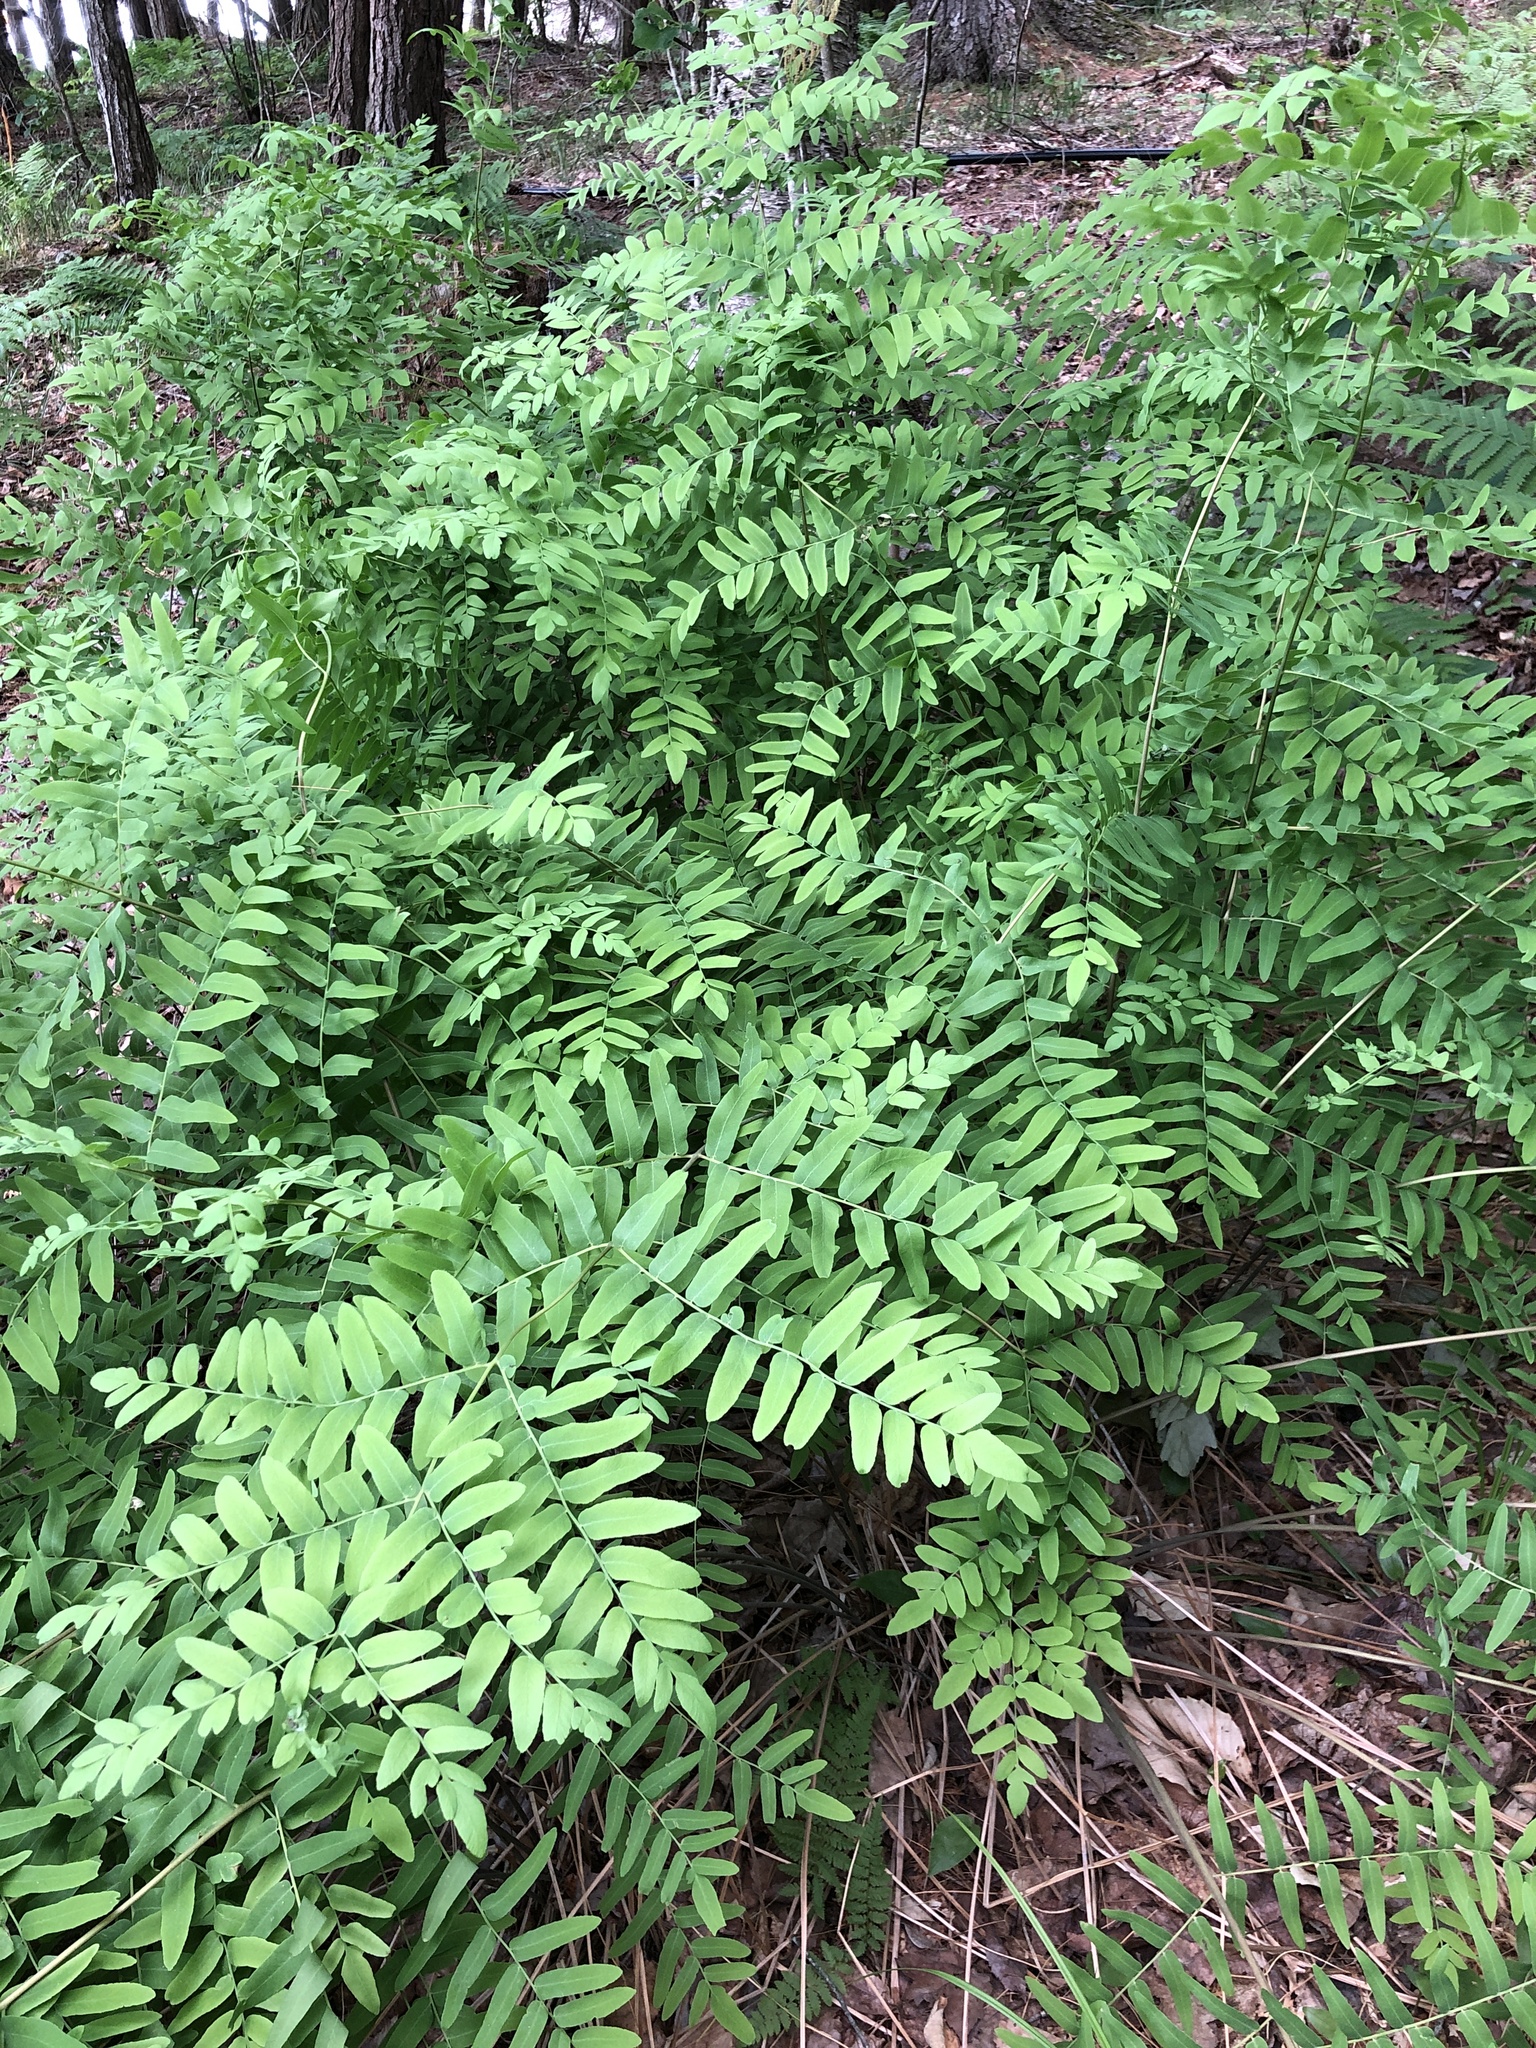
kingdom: Plantae
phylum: Tracheophyta
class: Polypodiopsida
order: Osmundales
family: Osmundaceae
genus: Osmunda
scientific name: Osmunda spectabilis
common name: American royal fern
